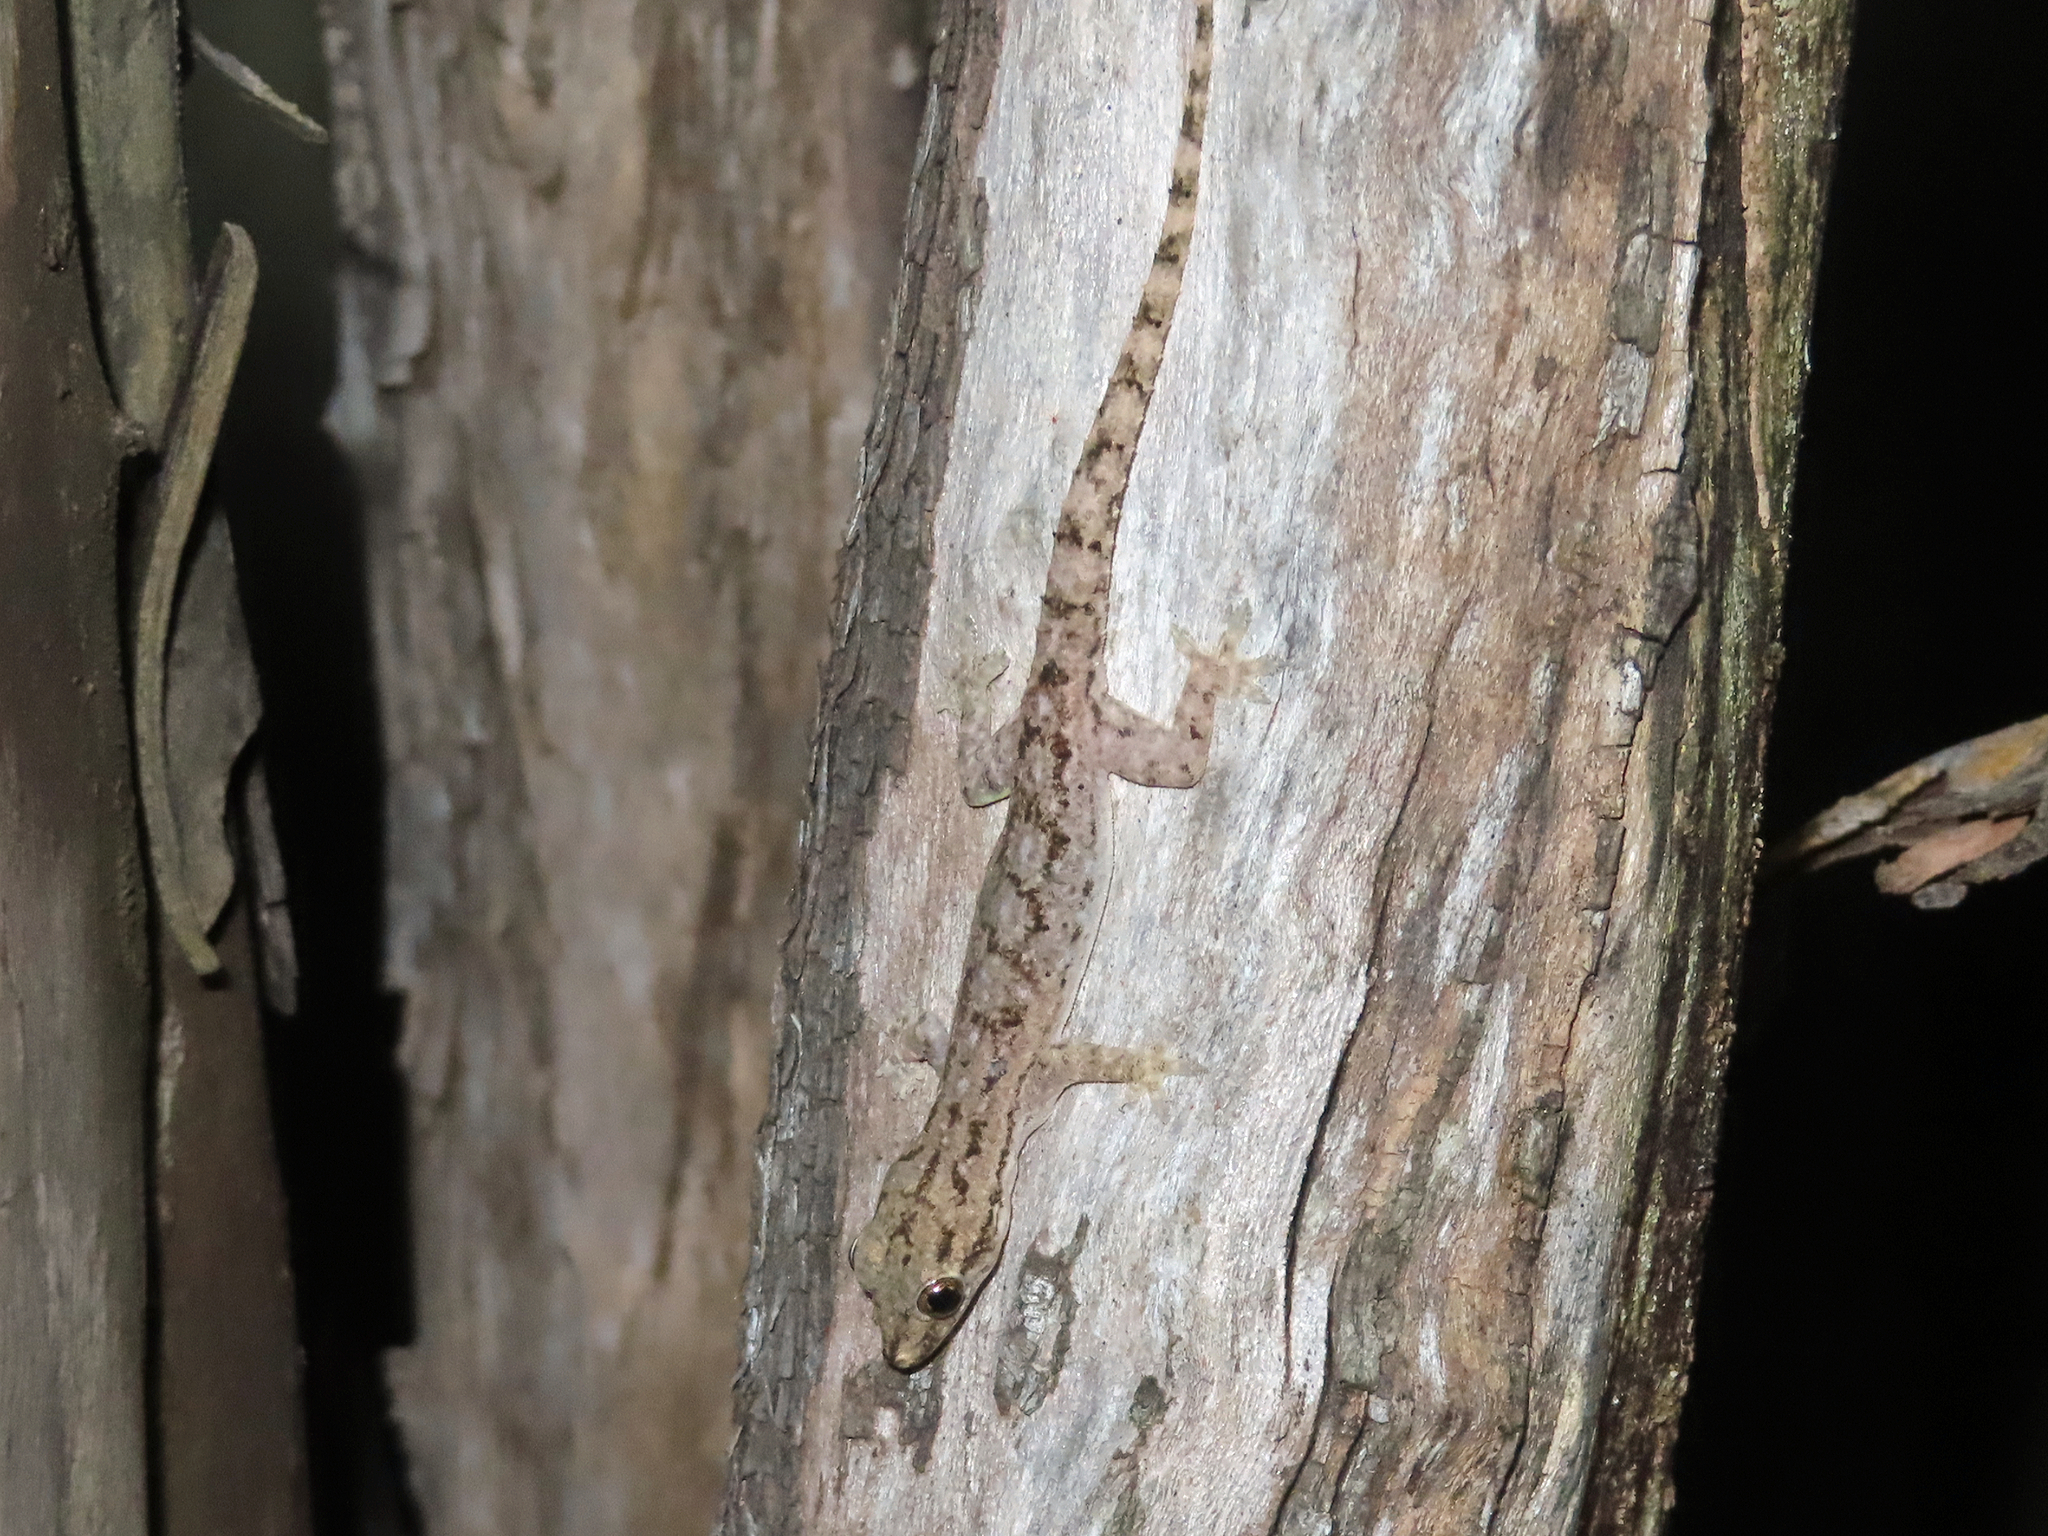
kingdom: Animalia
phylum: Chordata
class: Squamata
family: Gekkonidae
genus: Hemidactylus
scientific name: Hemidactylus frenatus
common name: Common house gecko
